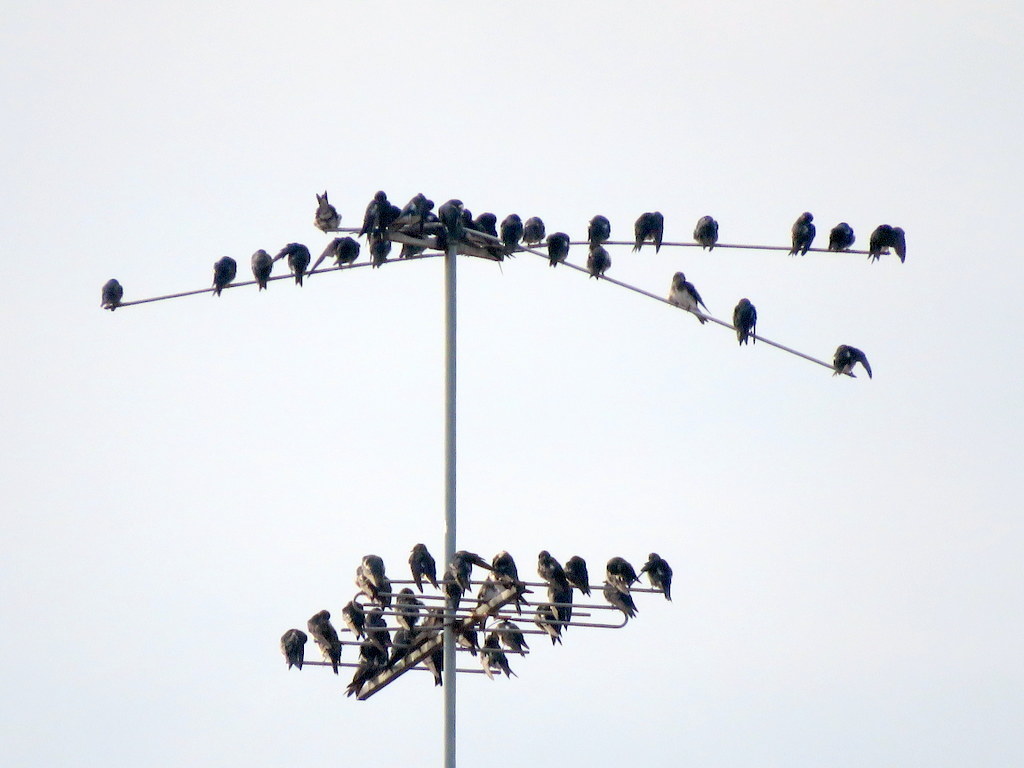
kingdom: Animalia
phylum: Chordata
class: Aves
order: Passeriformes
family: Hirundinidae
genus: Progne
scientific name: Progne chalybea
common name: Grey-breasted martin
